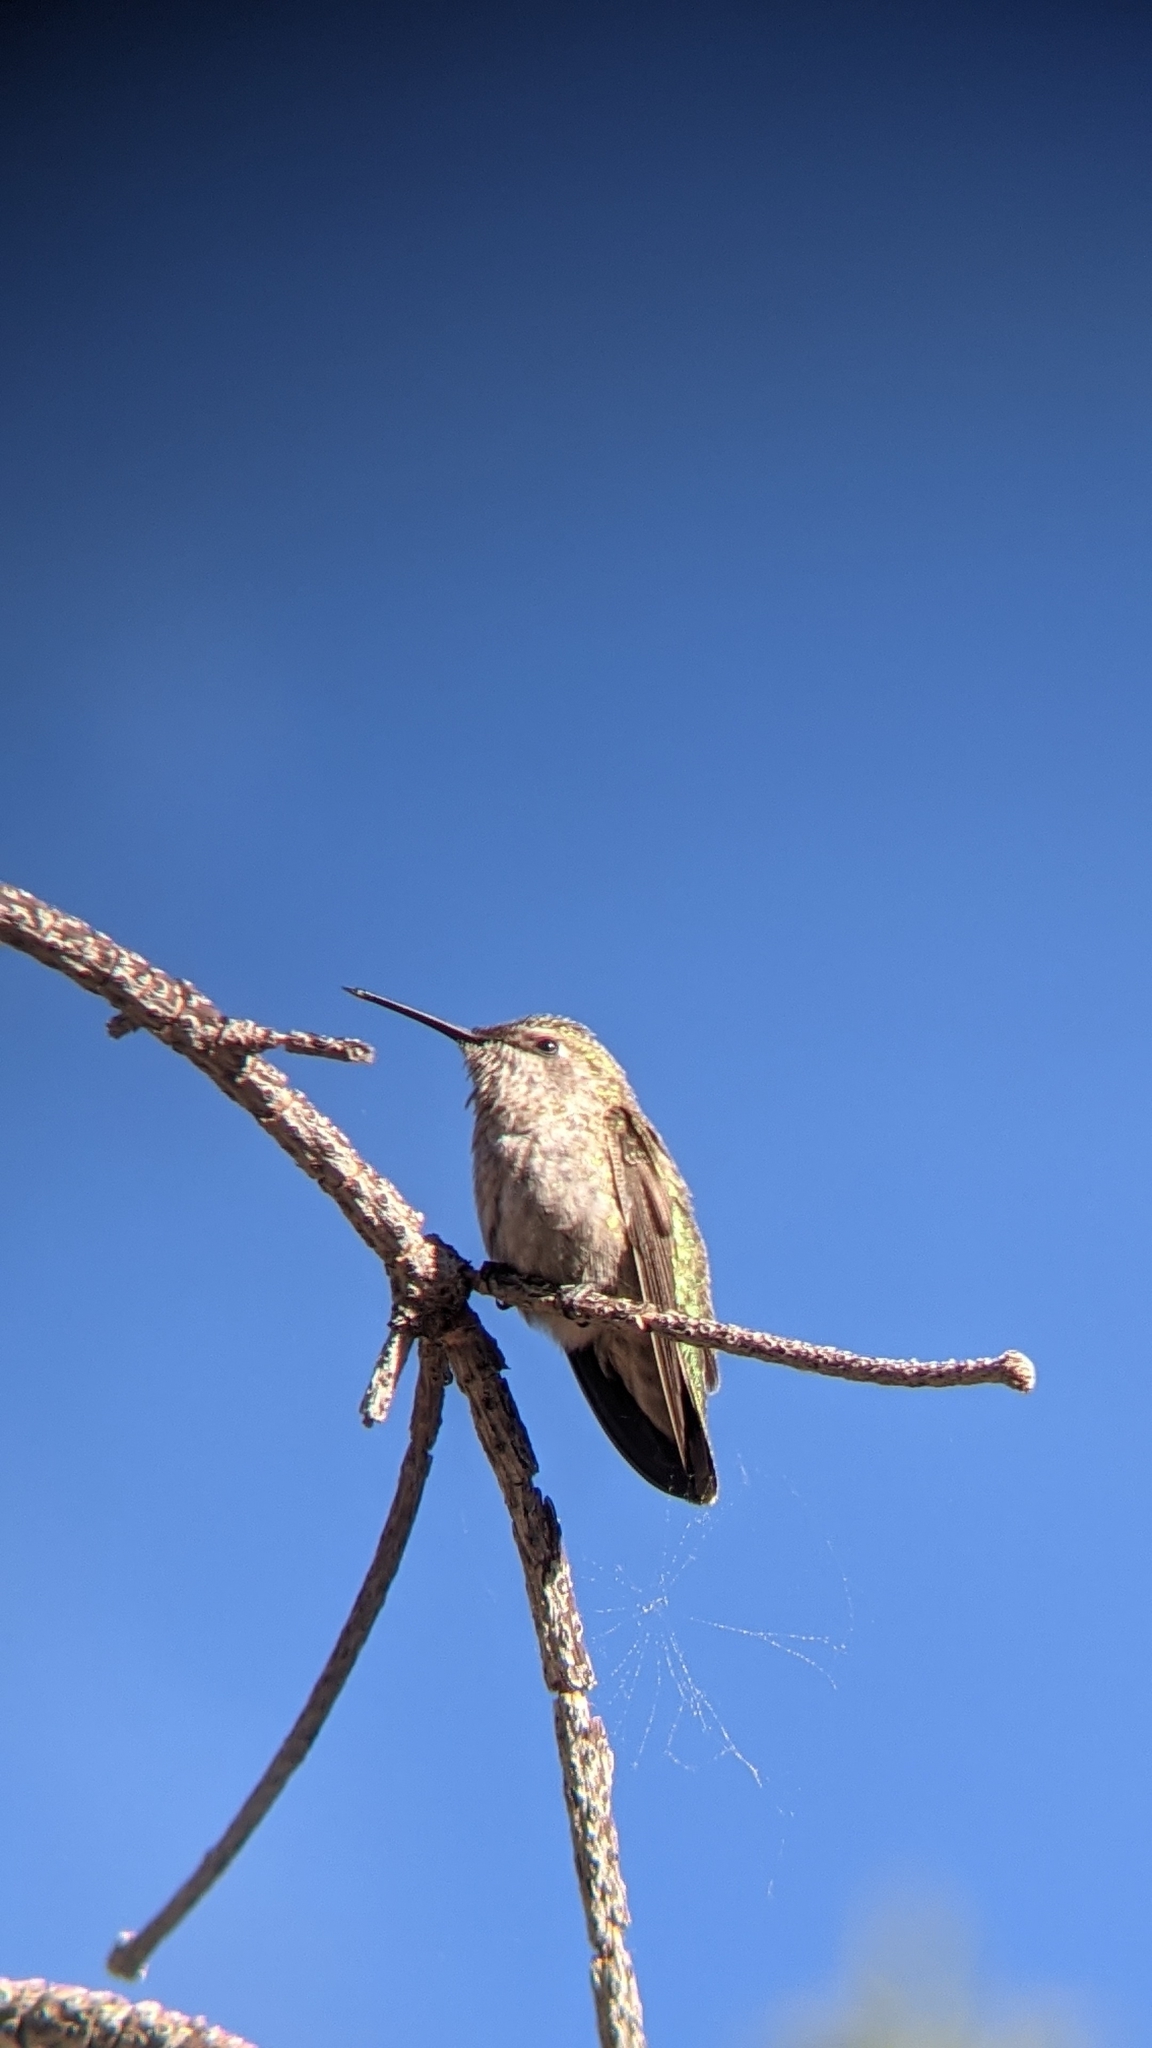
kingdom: Animalia
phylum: Chordata
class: Aves
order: Apodiformes
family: Trochilidae
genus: Calypte
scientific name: Calypte anna
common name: Anna's hummingbird
